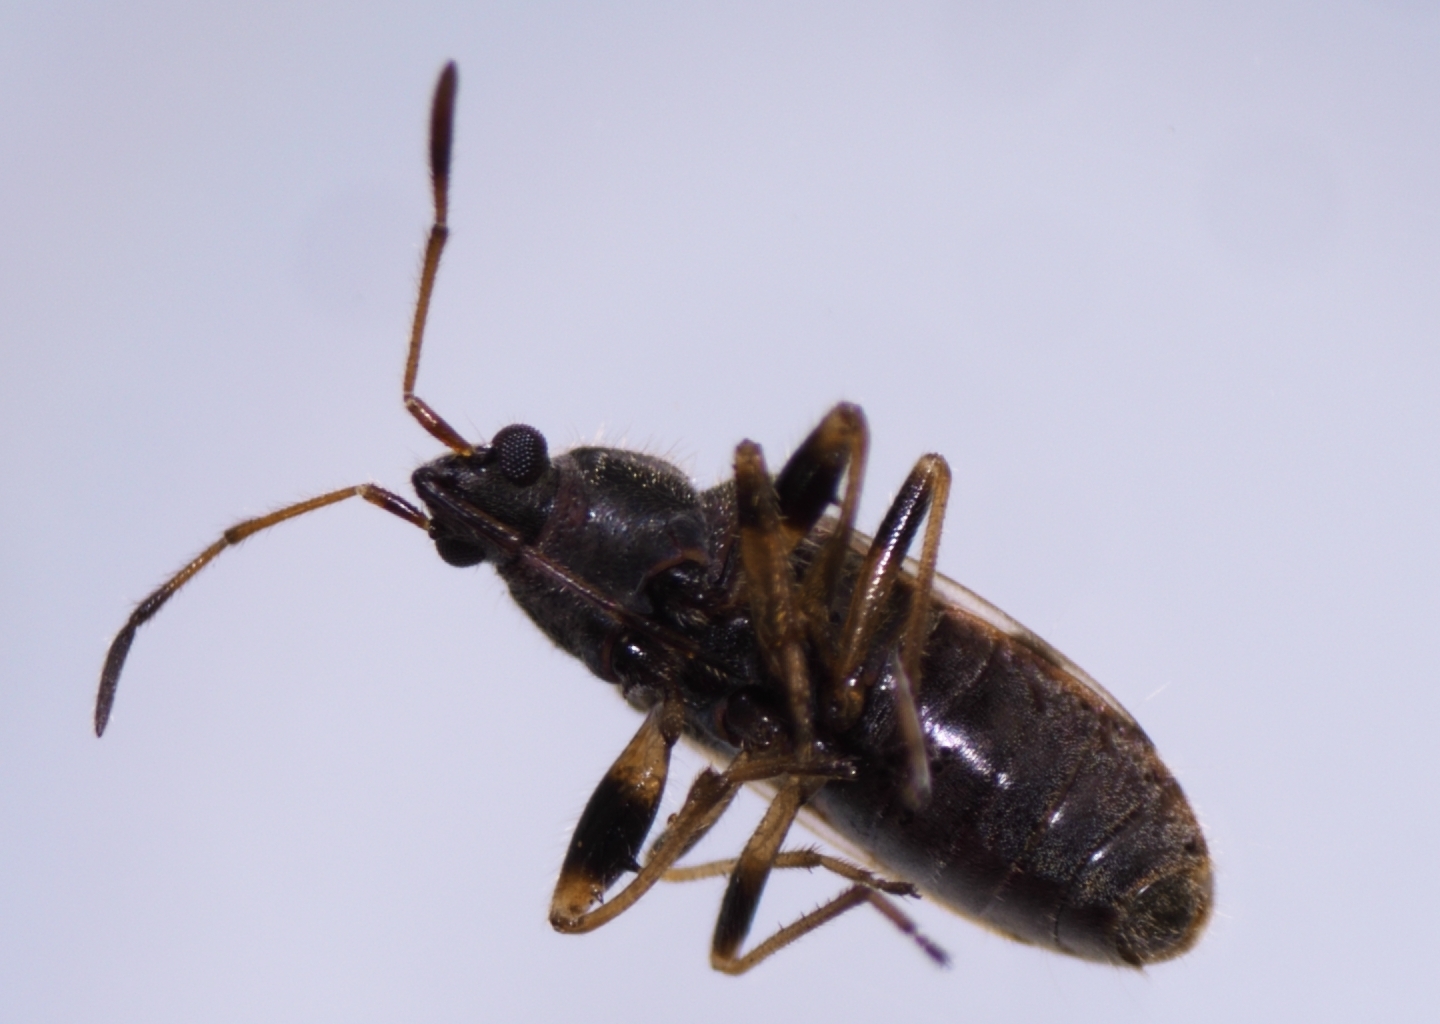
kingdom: Animalia
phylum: Arthropoda
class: Insecta
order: Hemiptera
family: Rhyparochromidae
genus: Remaudiereana
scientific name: Remaudiereana nigriceps
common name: Seed bug
